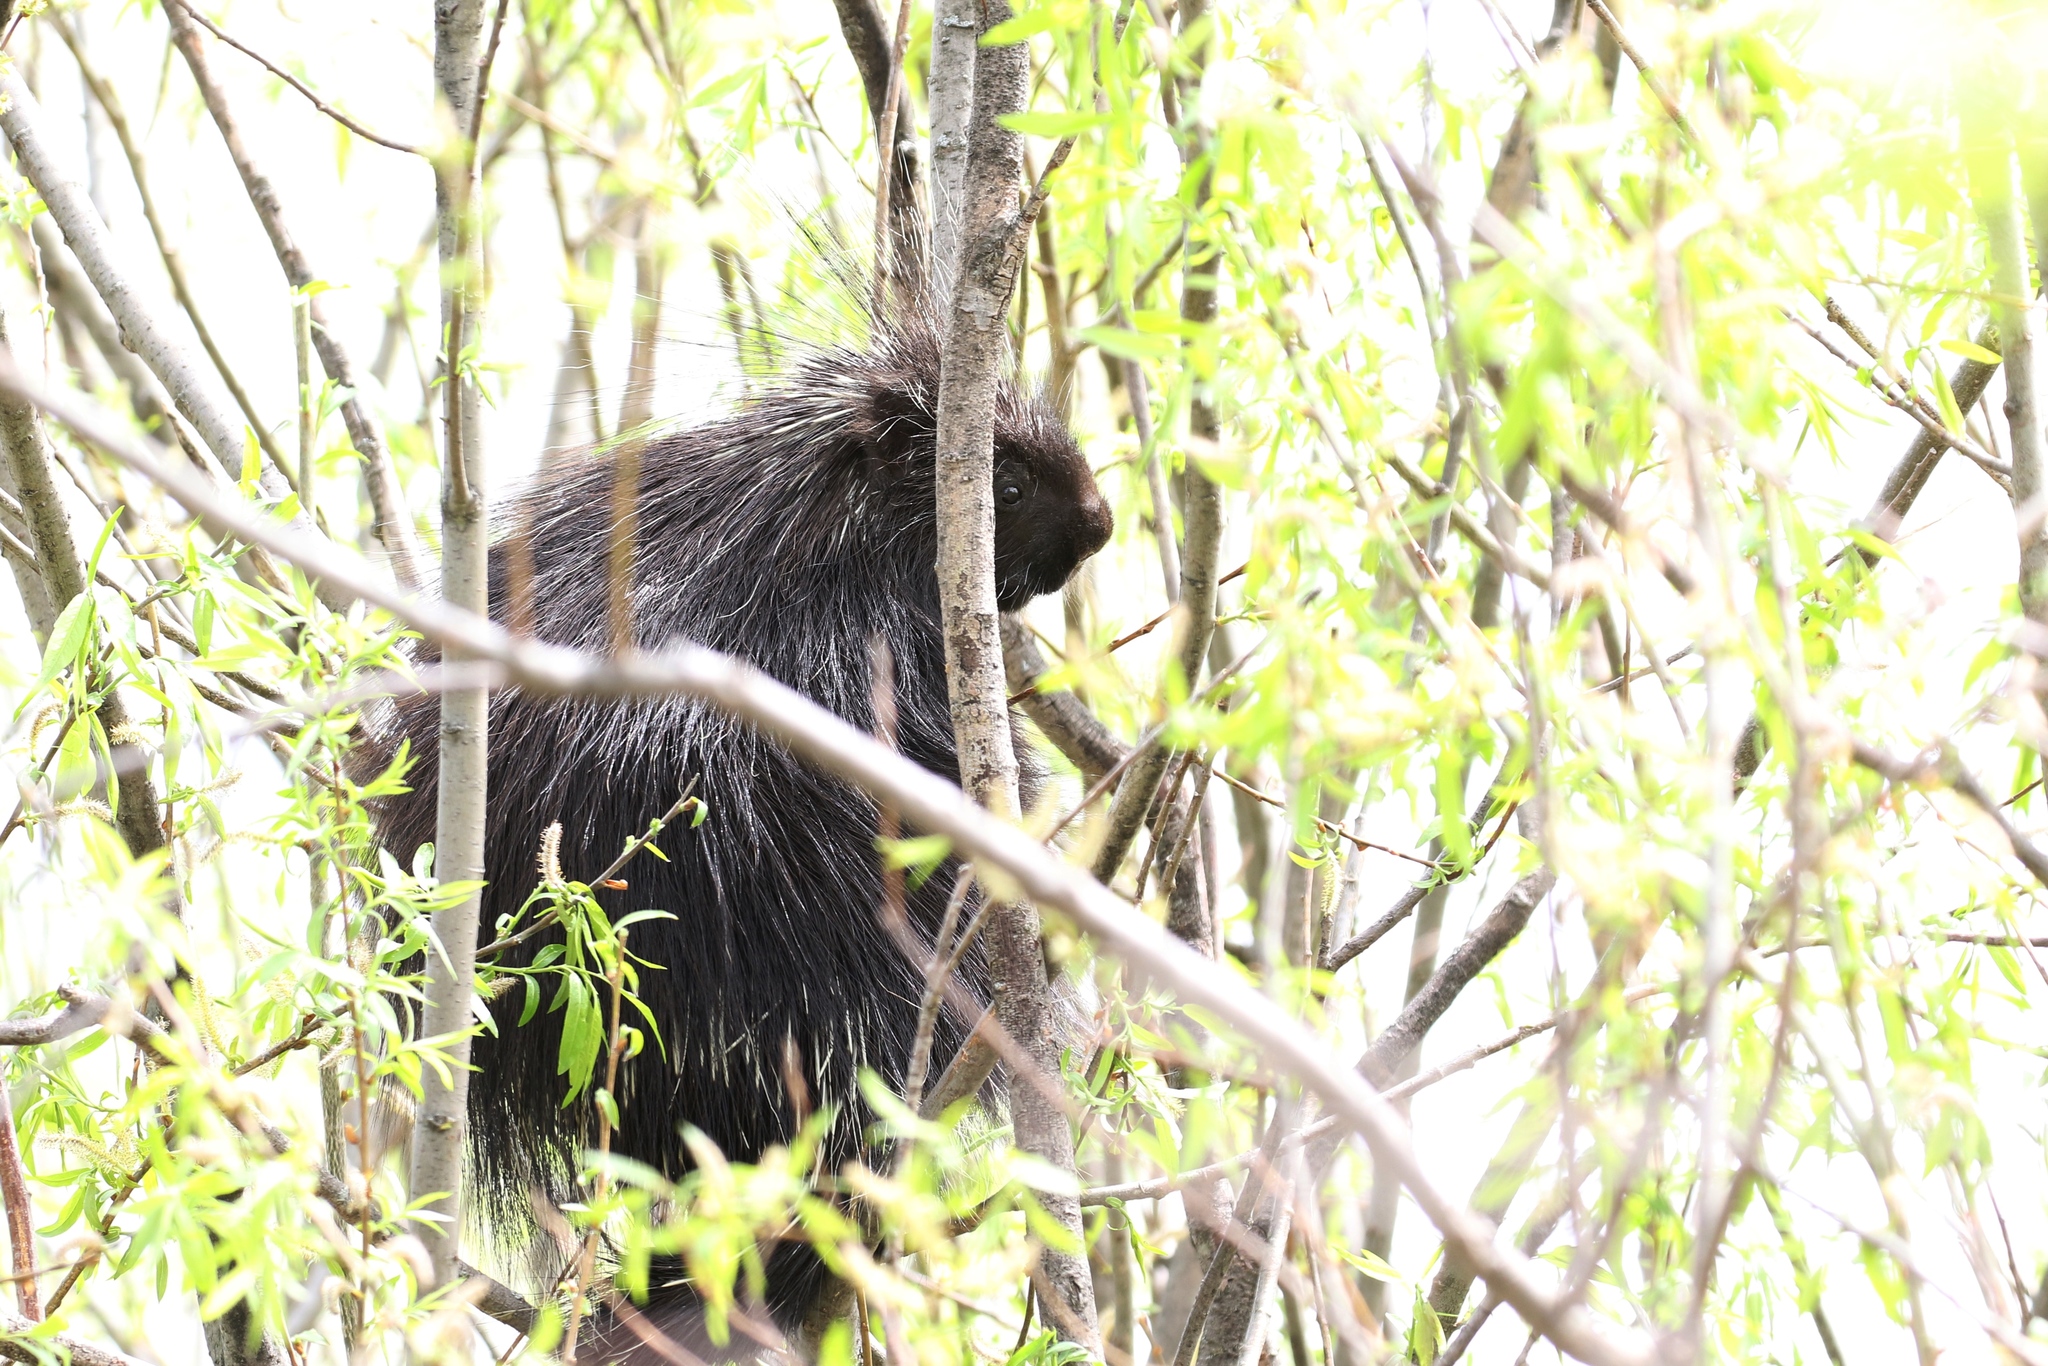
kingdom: Animalia
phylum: Chordata
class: Mammalia
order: Rodentia
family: Erethizontidae
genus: Erethizon
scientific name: Erethizon dorsatus
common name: North american porcupine
